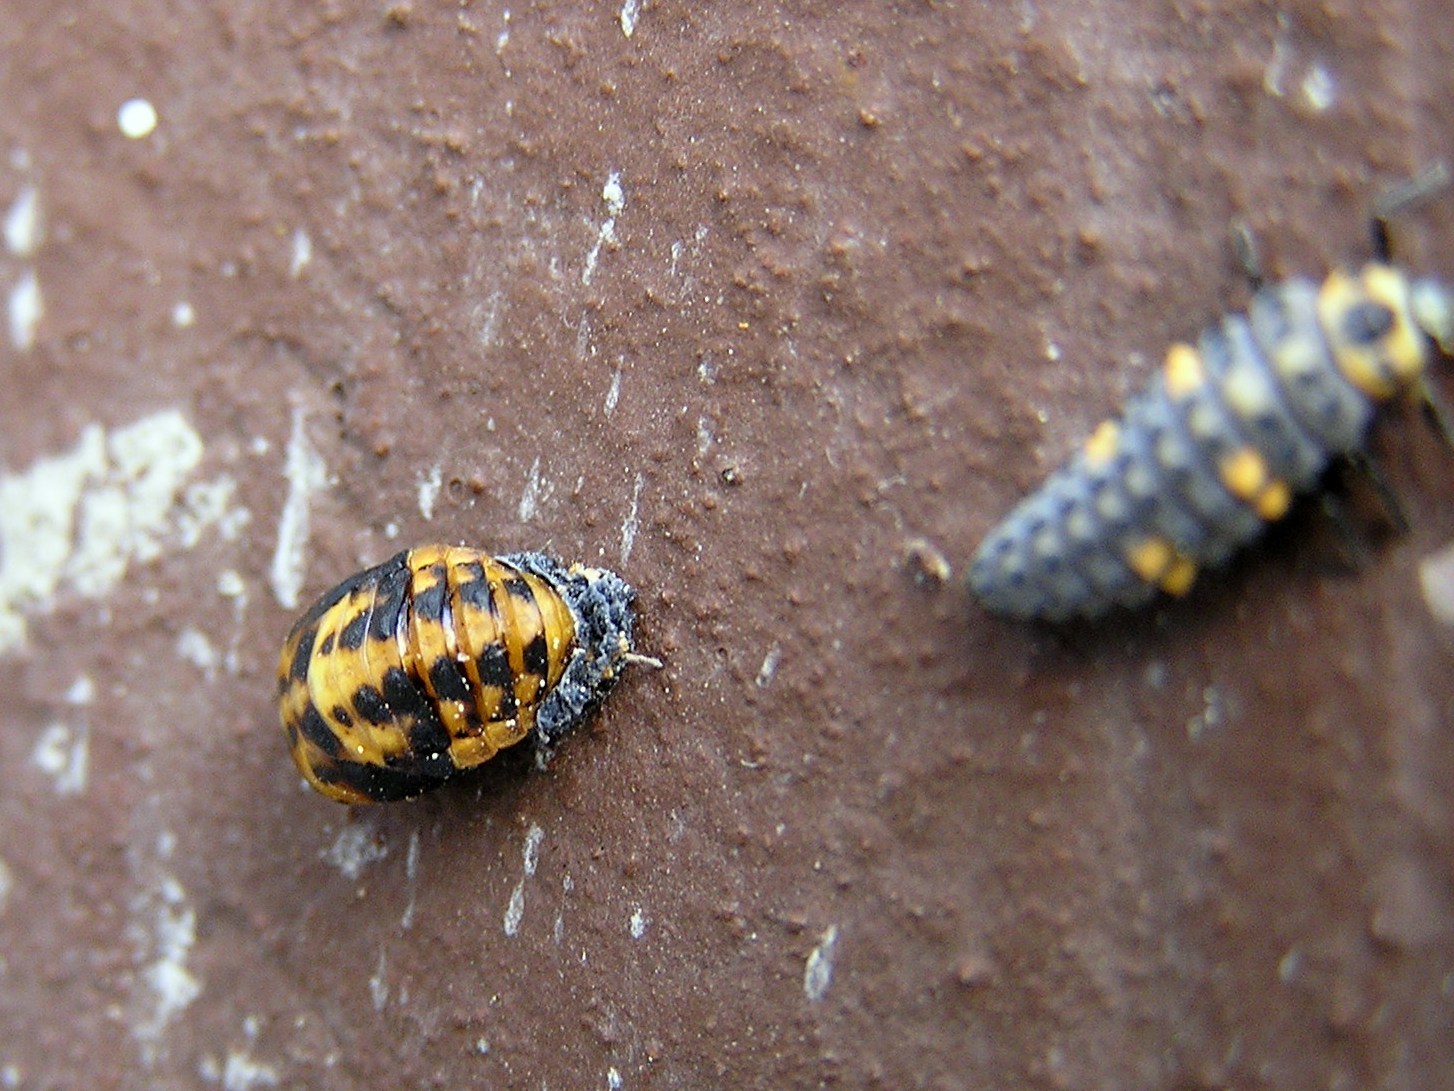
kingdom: Animalia
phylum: Arthropoda
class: Insecta
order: Coleoptera
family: Coccinellidae
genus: Coccinella
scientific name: Coccinella septempunctata
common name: Sevenspotted lady beetle
